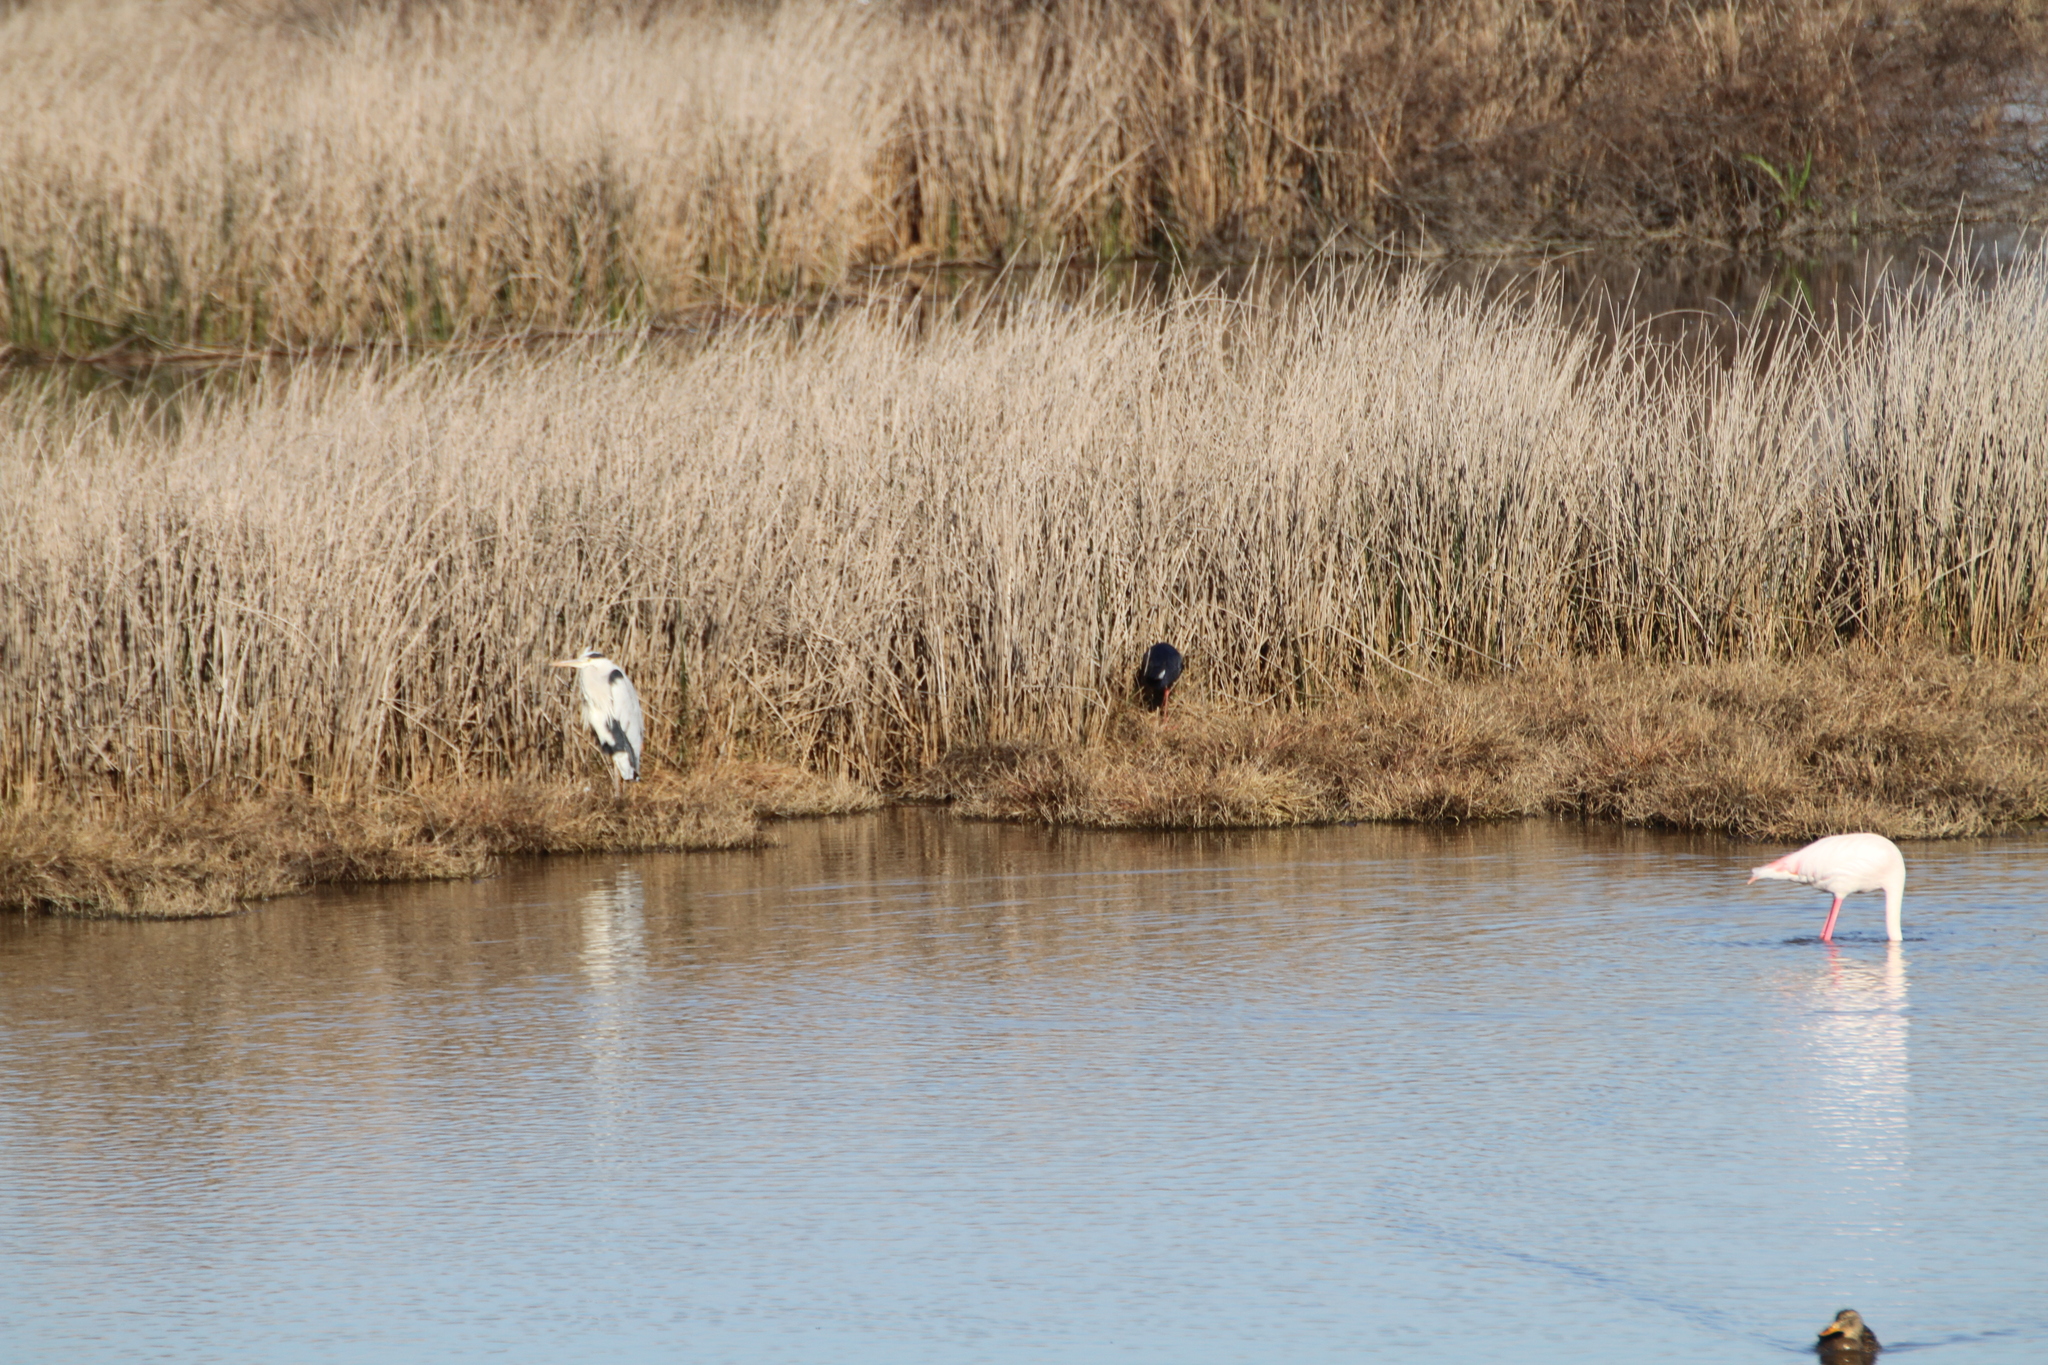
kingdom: Animalia
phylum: Chordata
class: Aves
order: Gruiformes
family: Rallidae
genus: Porphyrio
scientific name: Porphyrio porphyrio
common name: Purple swamphen
